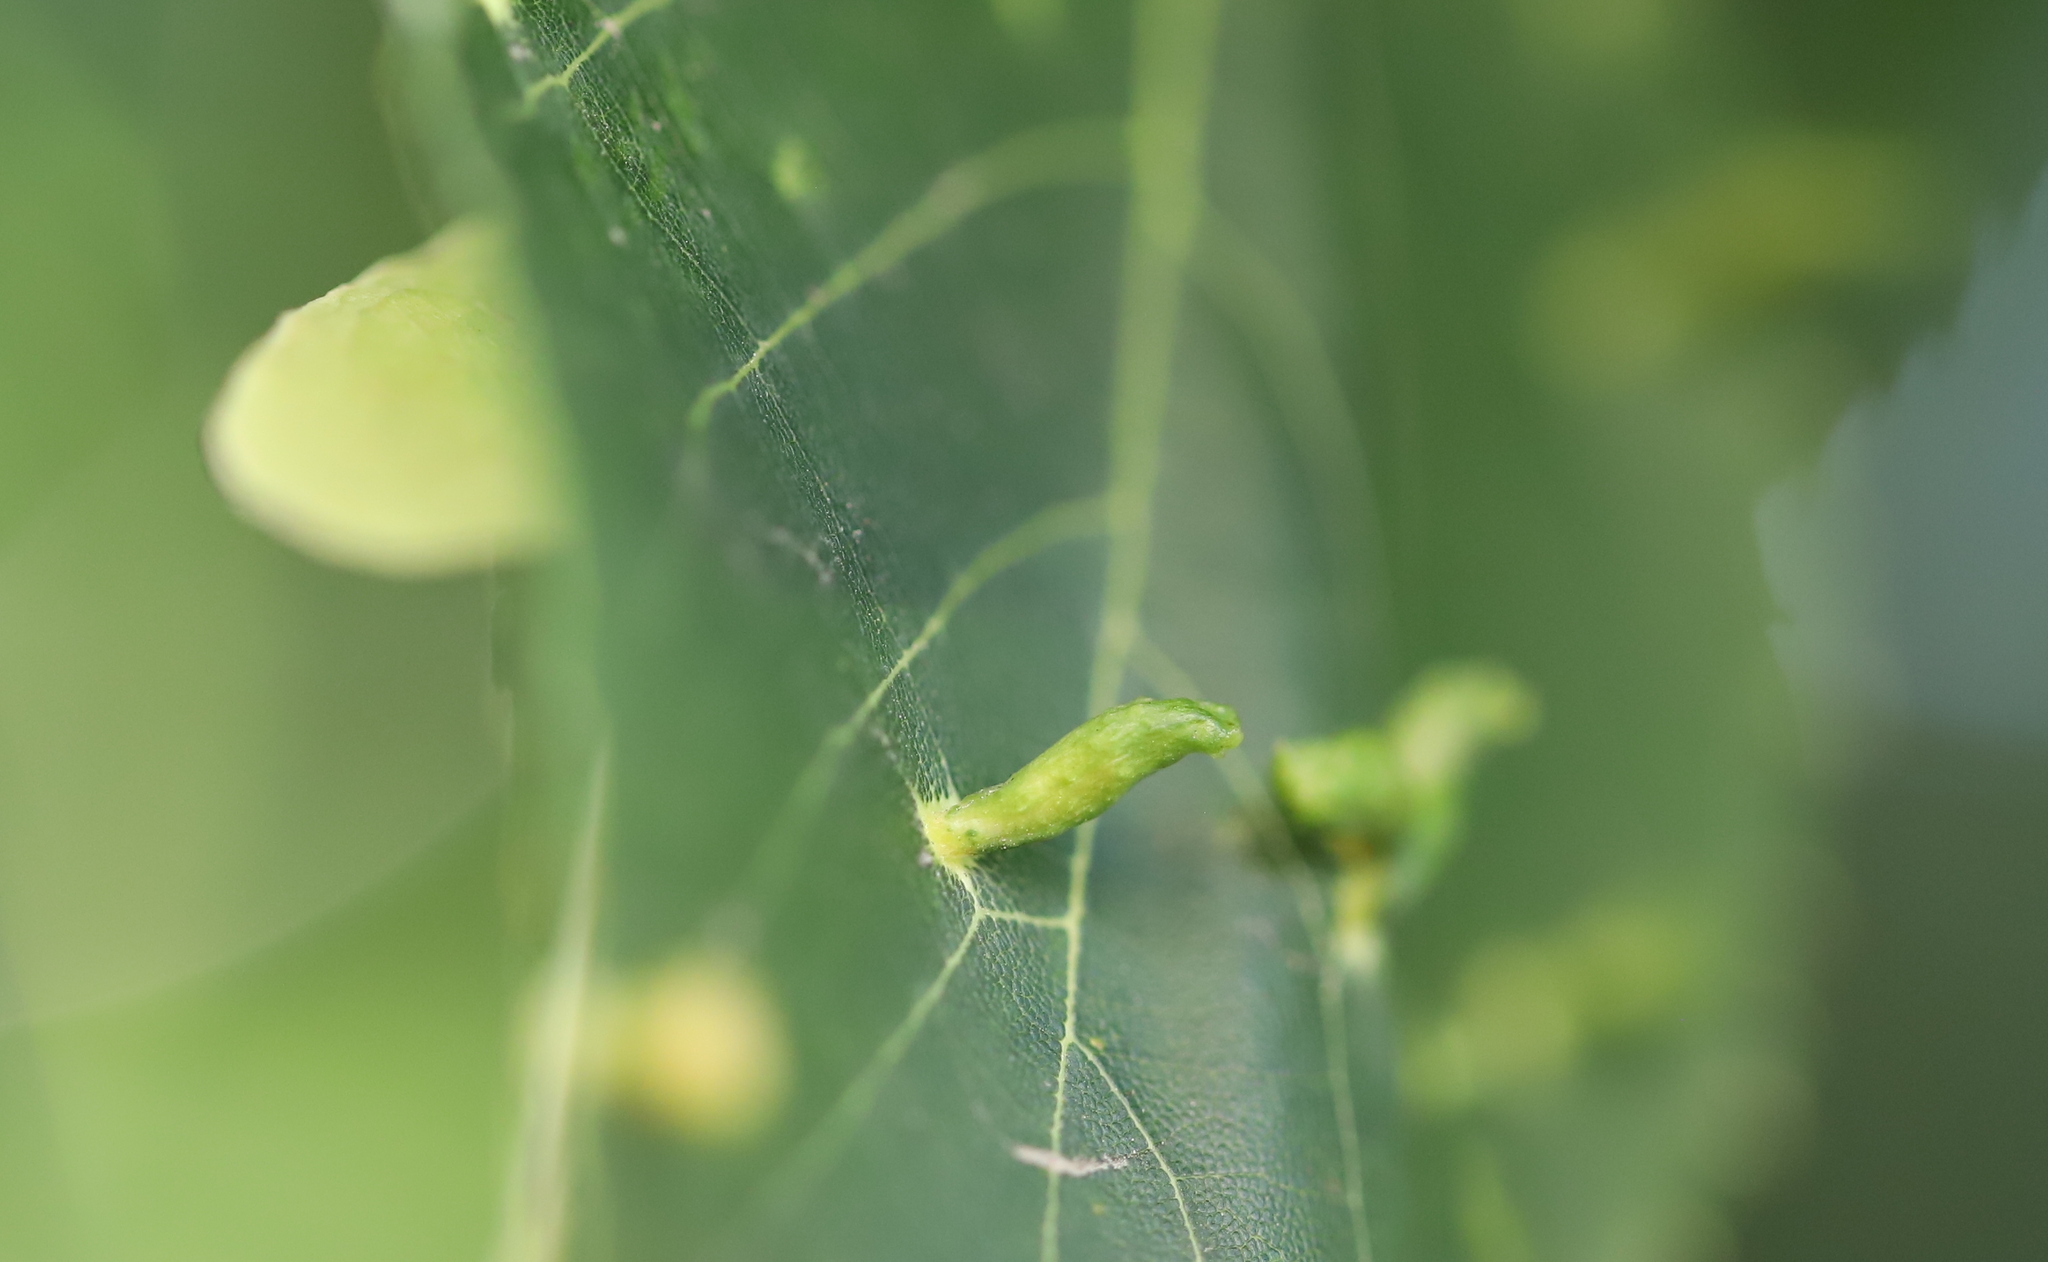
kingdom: Animalia
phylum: Arthropoda
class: Arachnida
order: Trombidiformes
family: Eriophyidae
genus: Eriophyes
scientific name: Eriophyes tiliae
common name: Red nail gall mite
